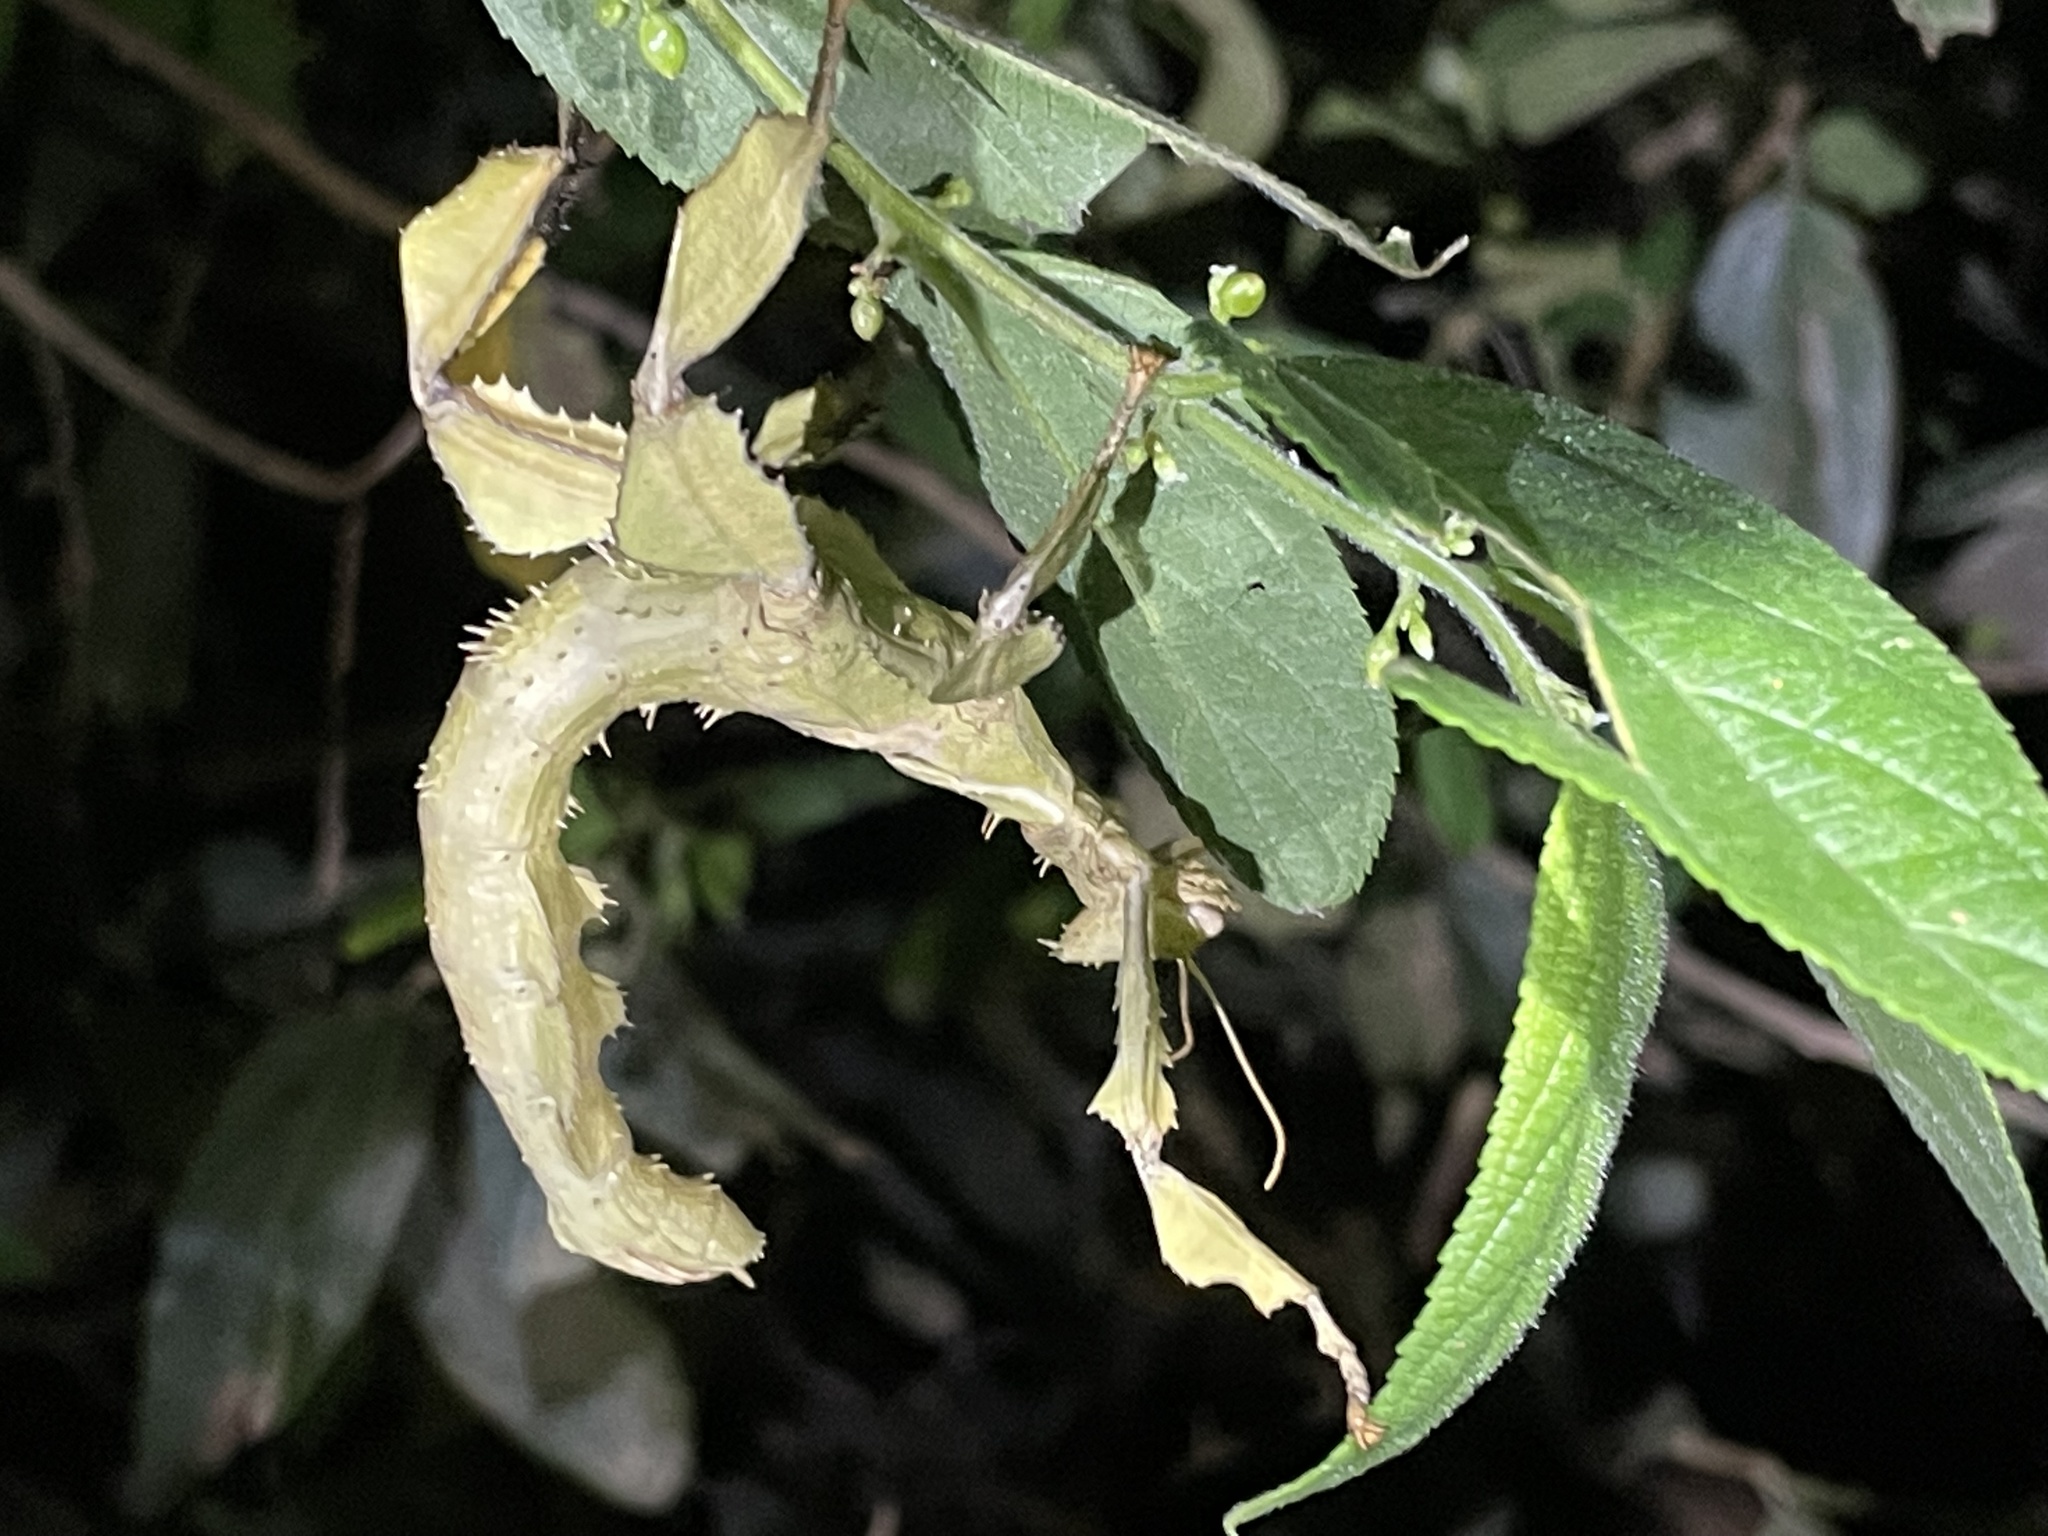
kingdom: Animalia
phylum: Arthropoda
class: Insecta
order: Phasmida
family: Phasmatidae
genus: Extatosoma
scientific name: Extatosoma tiaratum
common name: Macleay's spectre
